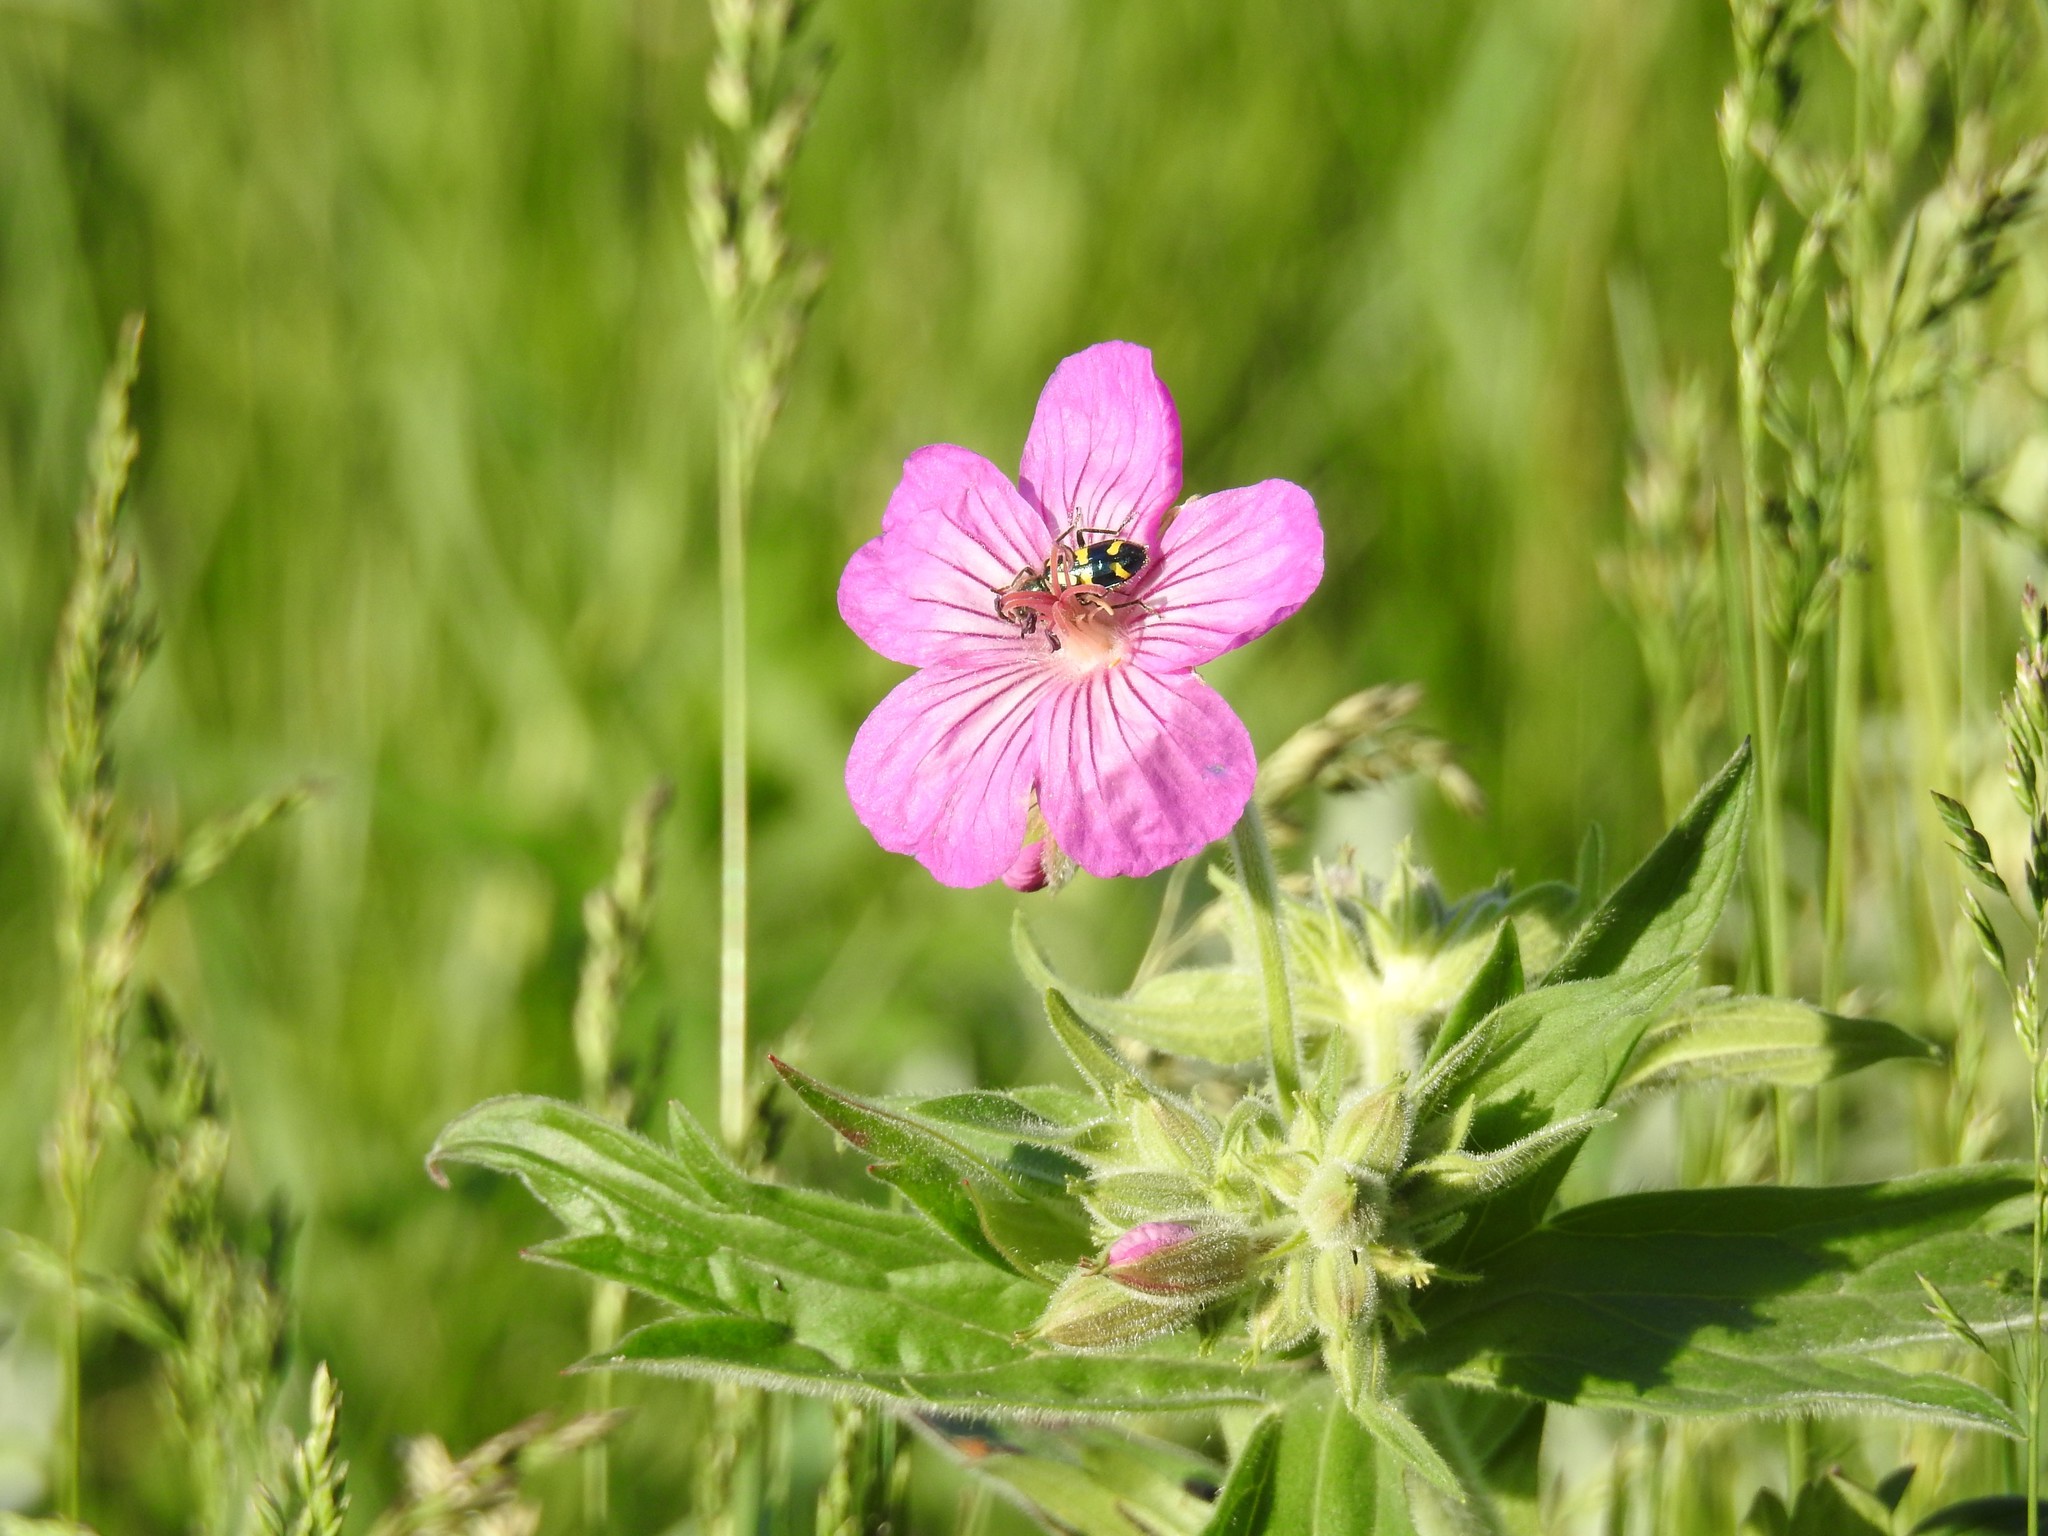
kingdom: Plantae
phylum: Tracheophyta
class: Magnoliopsida
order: Geraniales
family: Geraniaceae
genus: Geranium
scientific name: Geranium viscosissimum
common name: Purple geranium
